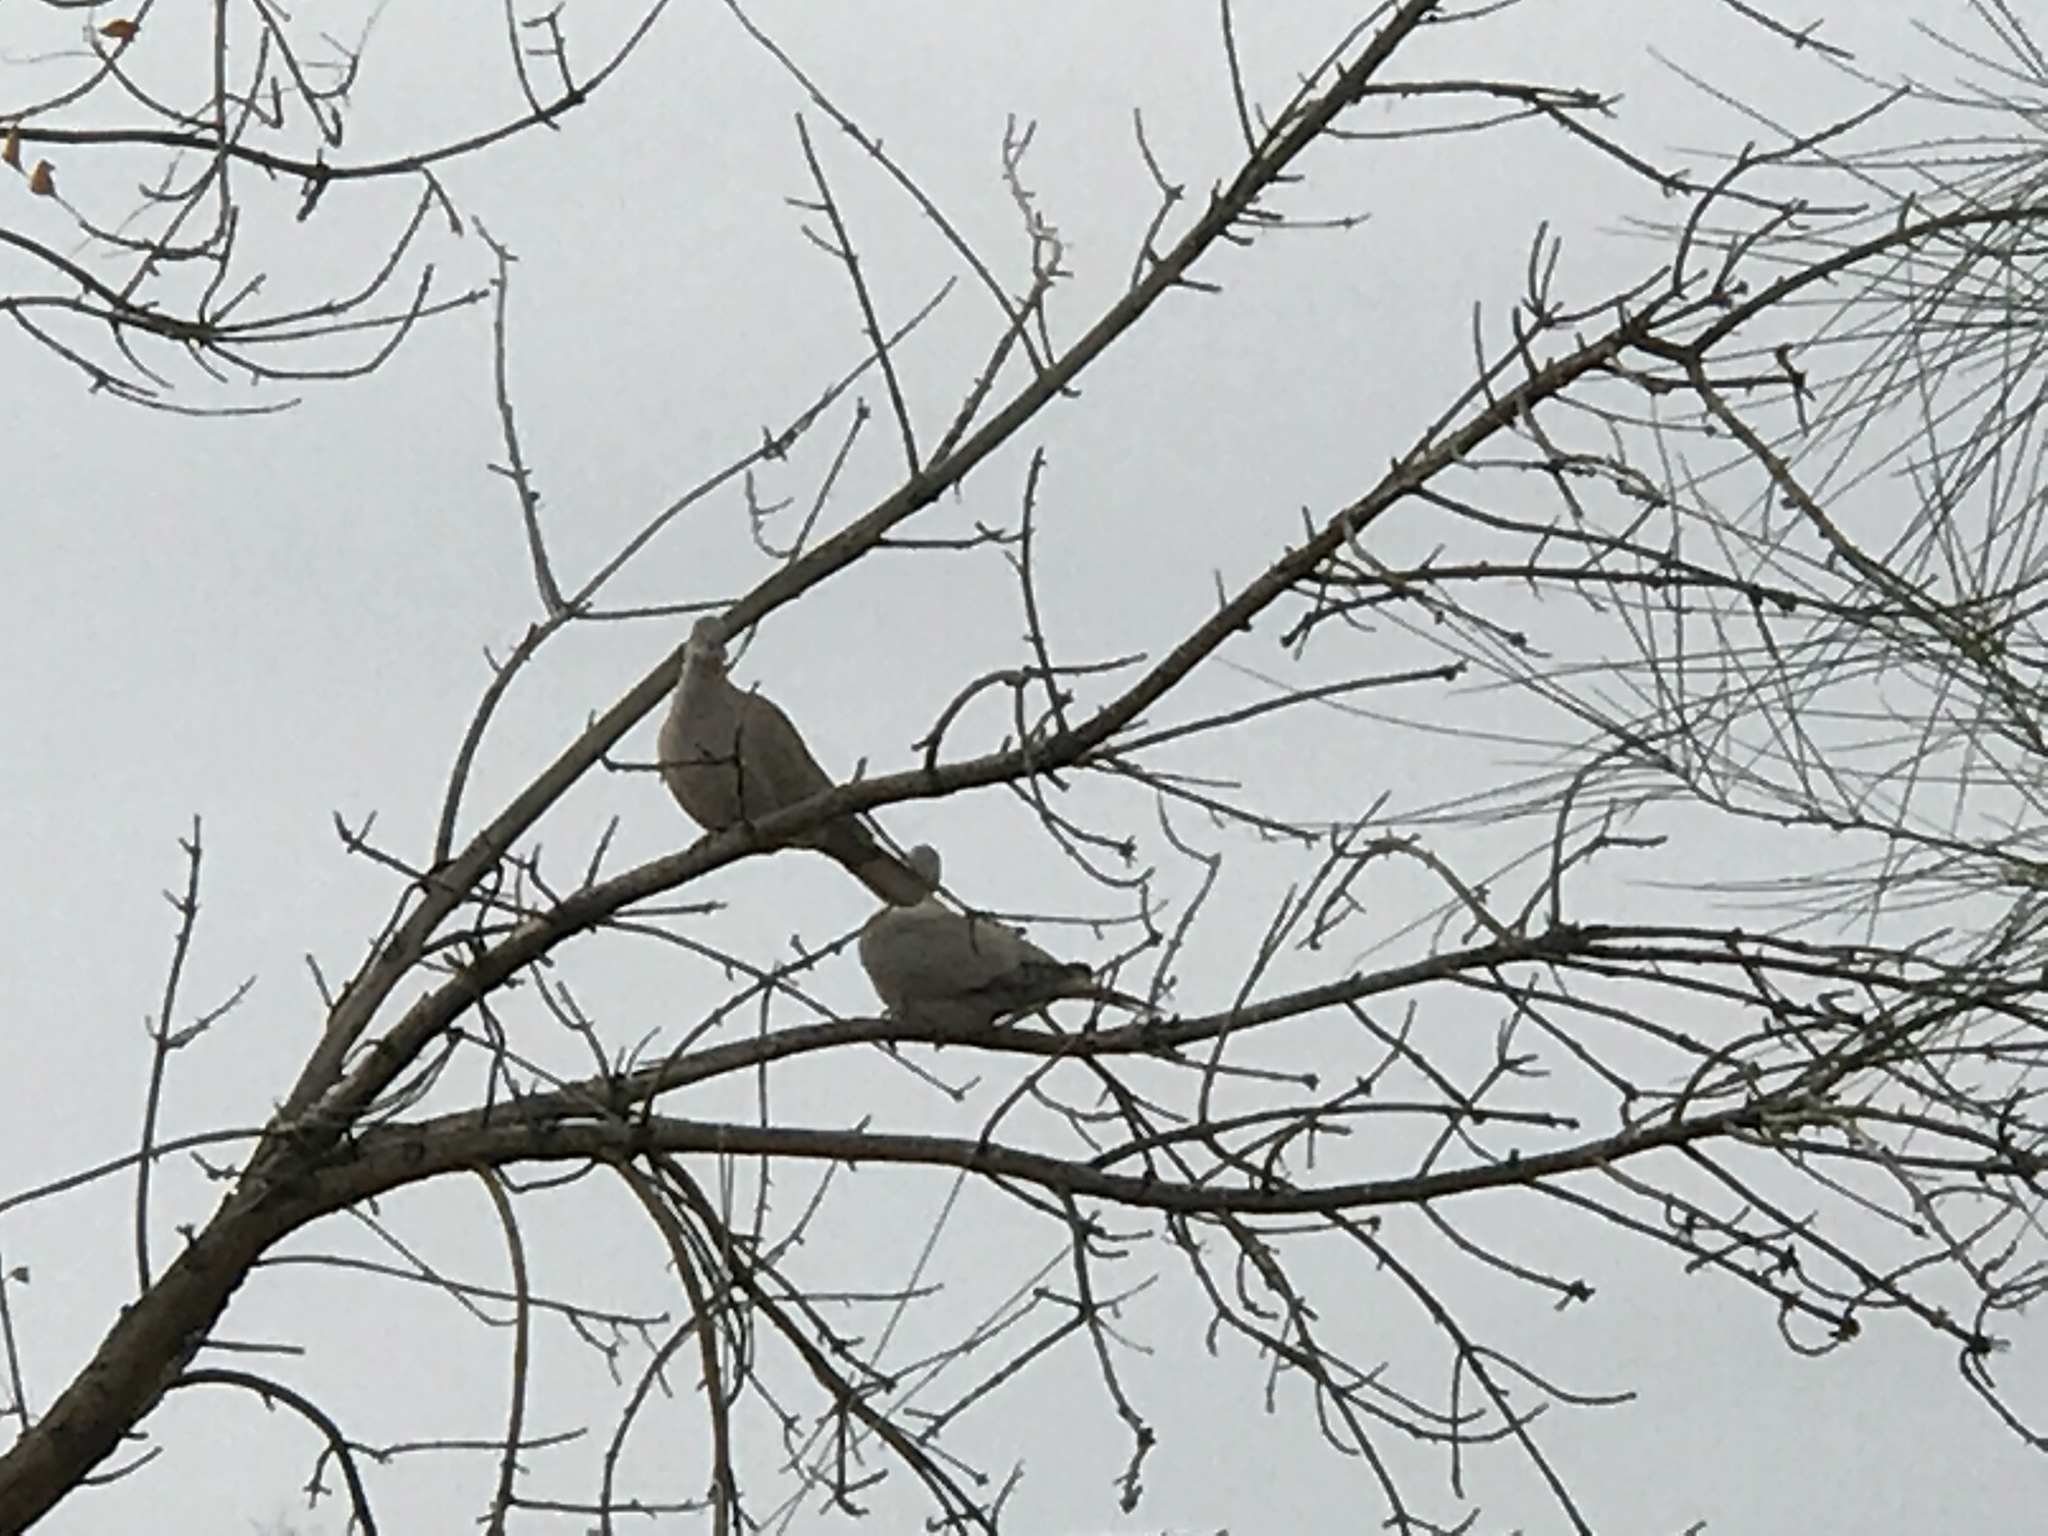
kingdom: Animalia
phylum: Chordata
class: Aves
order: Columbiformes
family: Columbidae
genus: Streptopelia
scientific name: Streptopelia decaocto
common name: Eurasian collared dove
